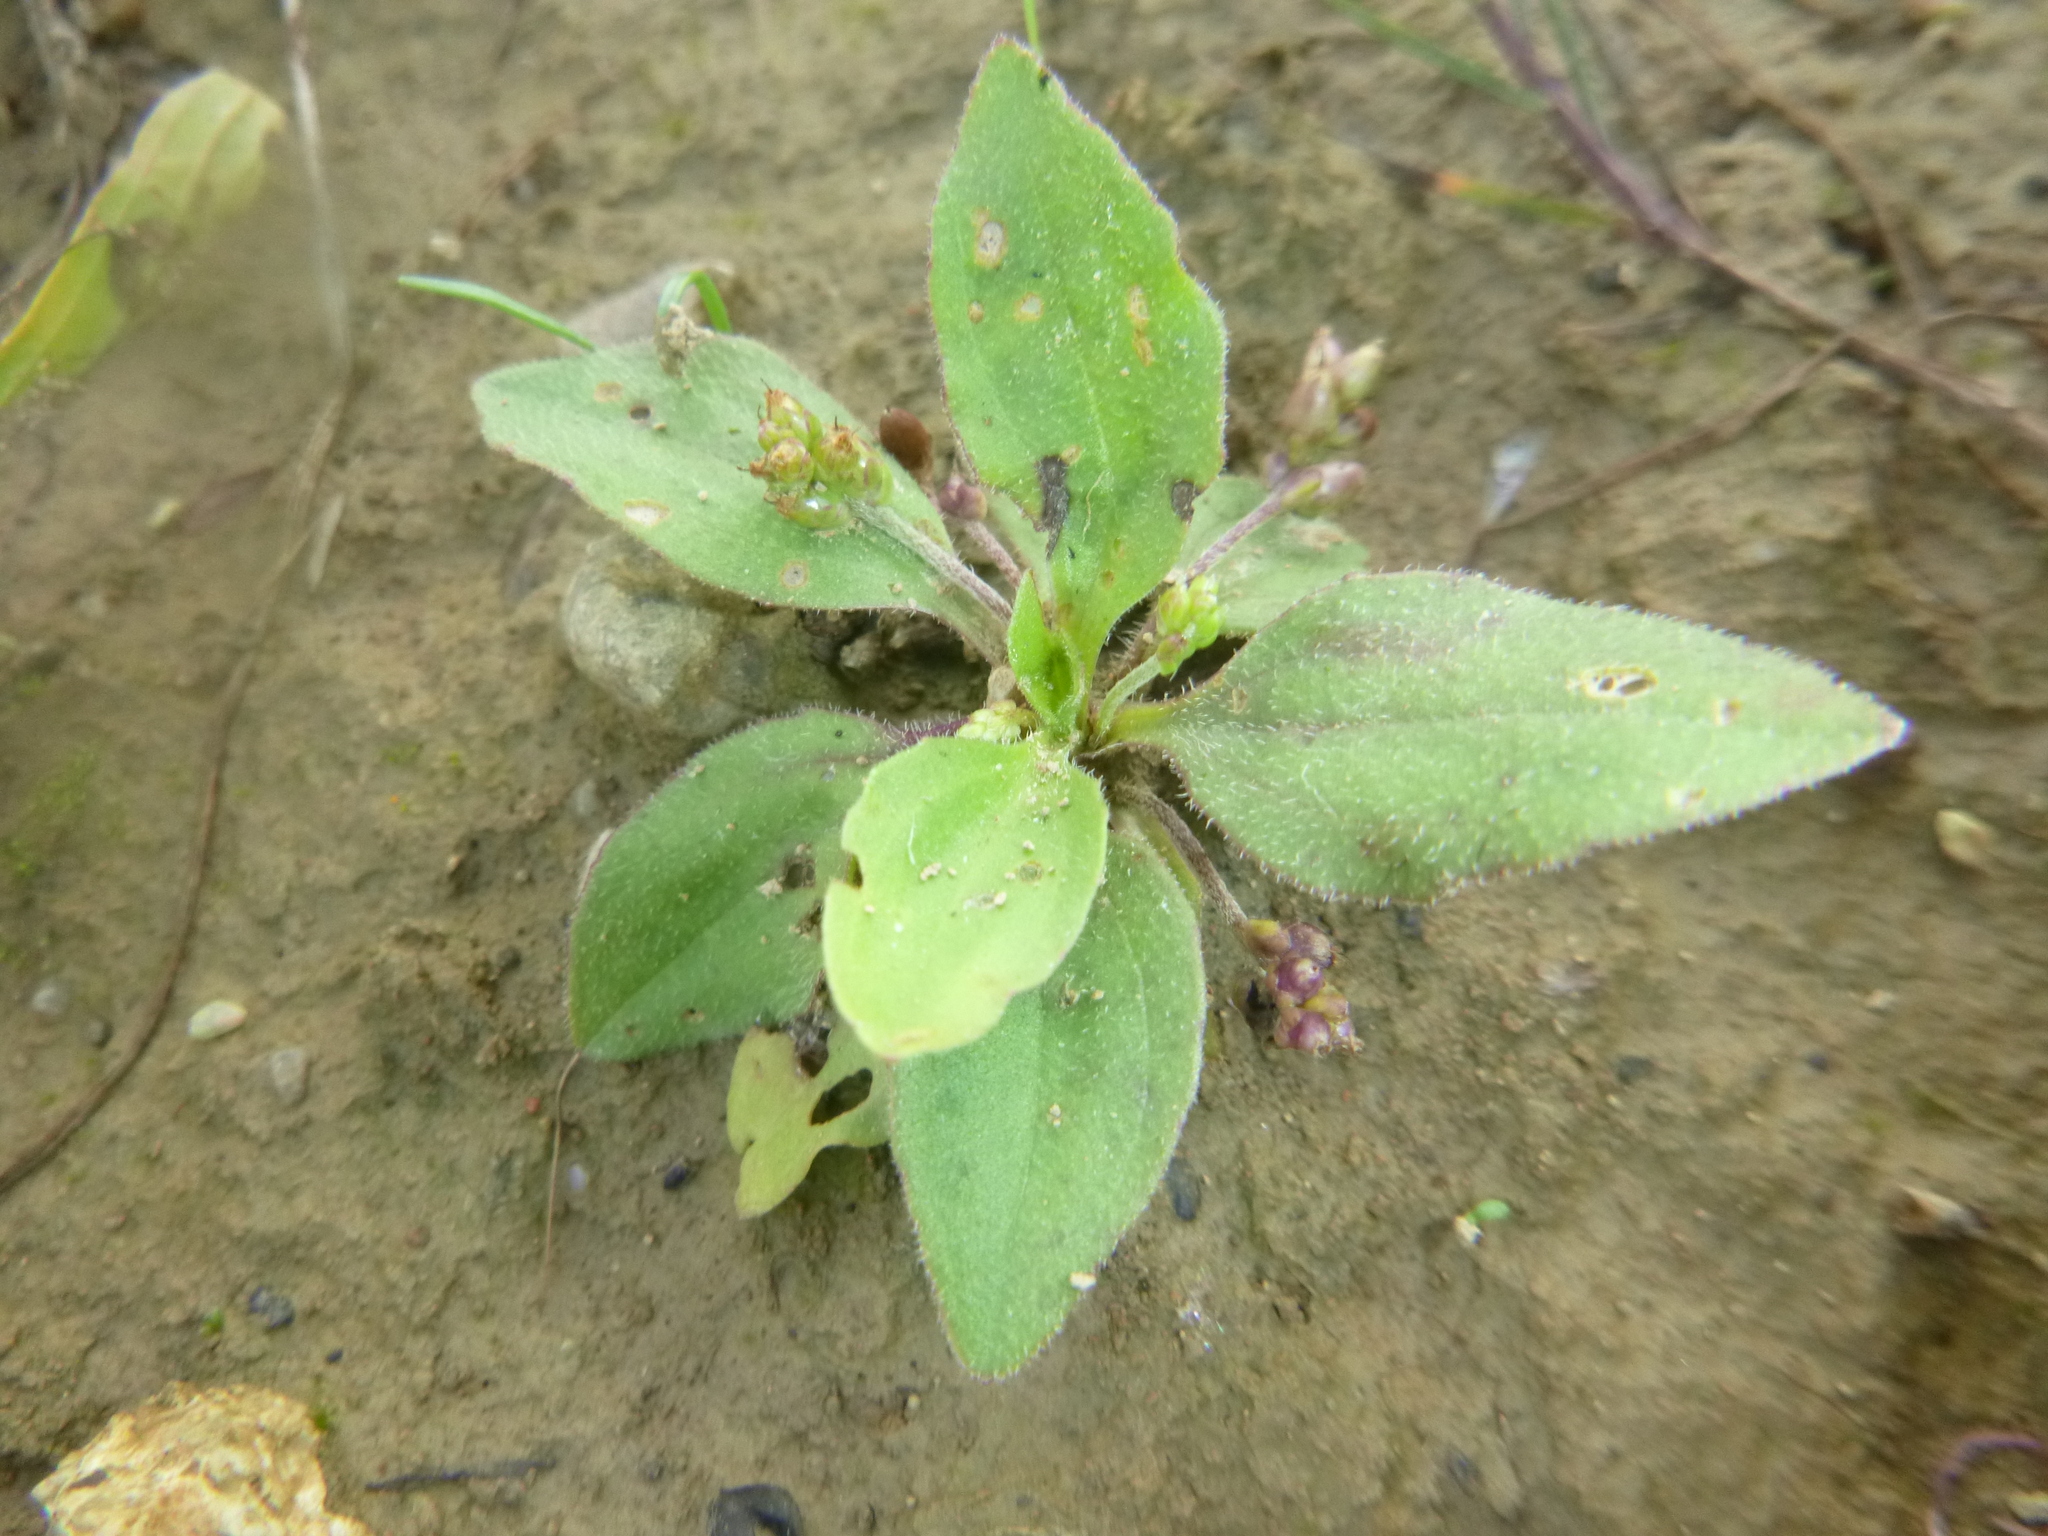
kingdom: Plantae
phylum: Tracheophyta
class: Magnoliopsida
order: Lamiales
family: Plantaginaceae
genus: Plantago
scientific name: Plantago uliginosa
